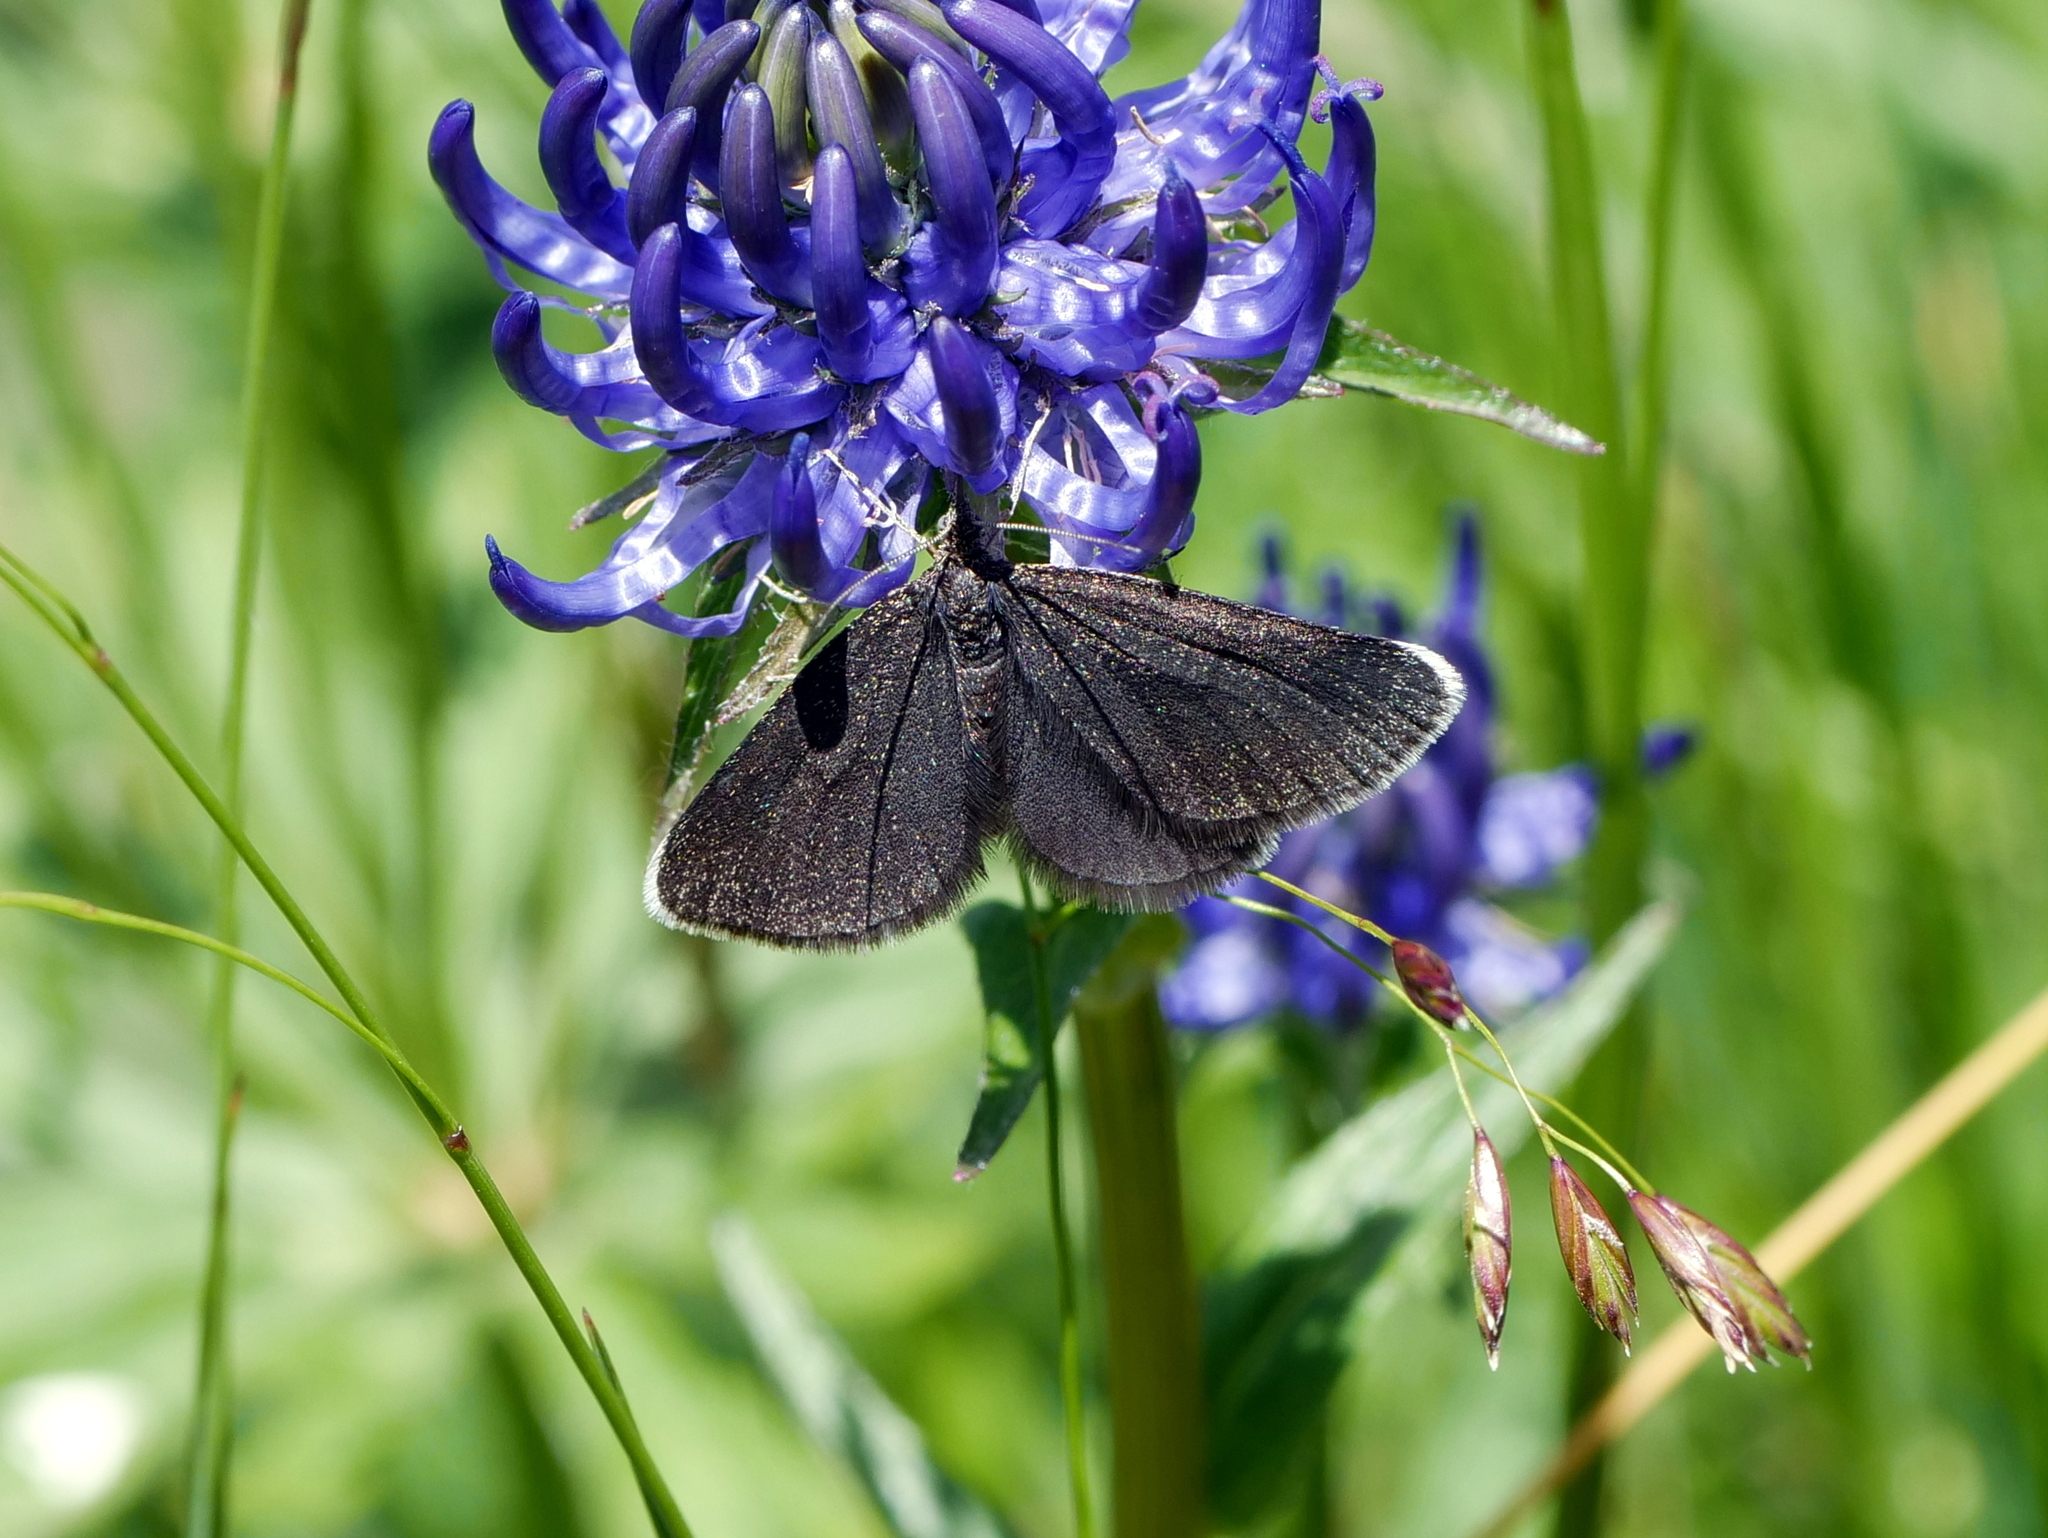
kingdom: Animalia
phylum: Arthropoda
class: Insecta
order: Lepidoptera
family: Geometridae
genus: Odezia
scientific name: Odezia atrata
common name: Chimney sweeper
